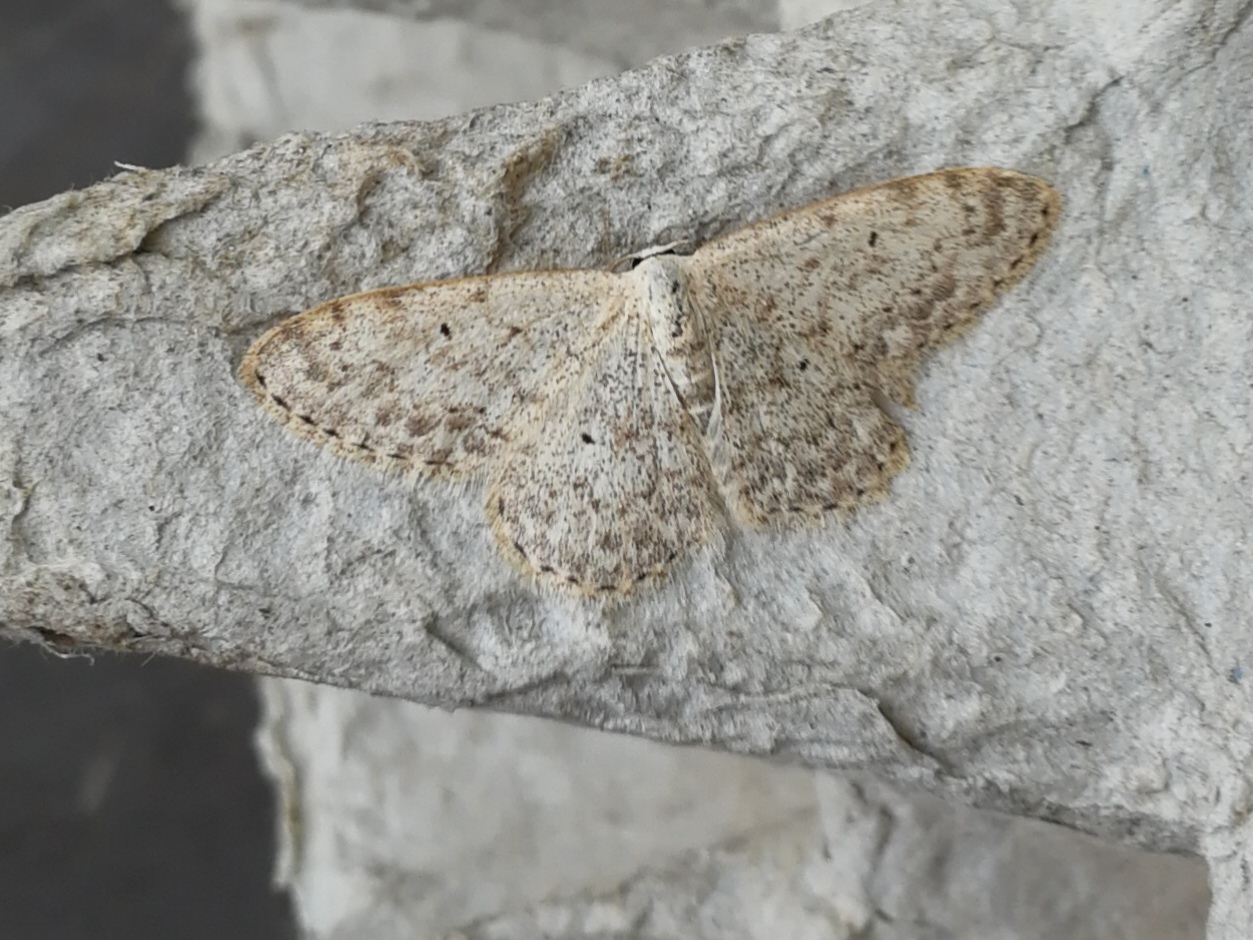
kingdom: Animalia
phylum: Arthropoda
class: Insecta
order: Lepidoptera
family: Geometridae
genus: Scopula
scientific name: Scopula marginepunctata
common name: Mullein wave
